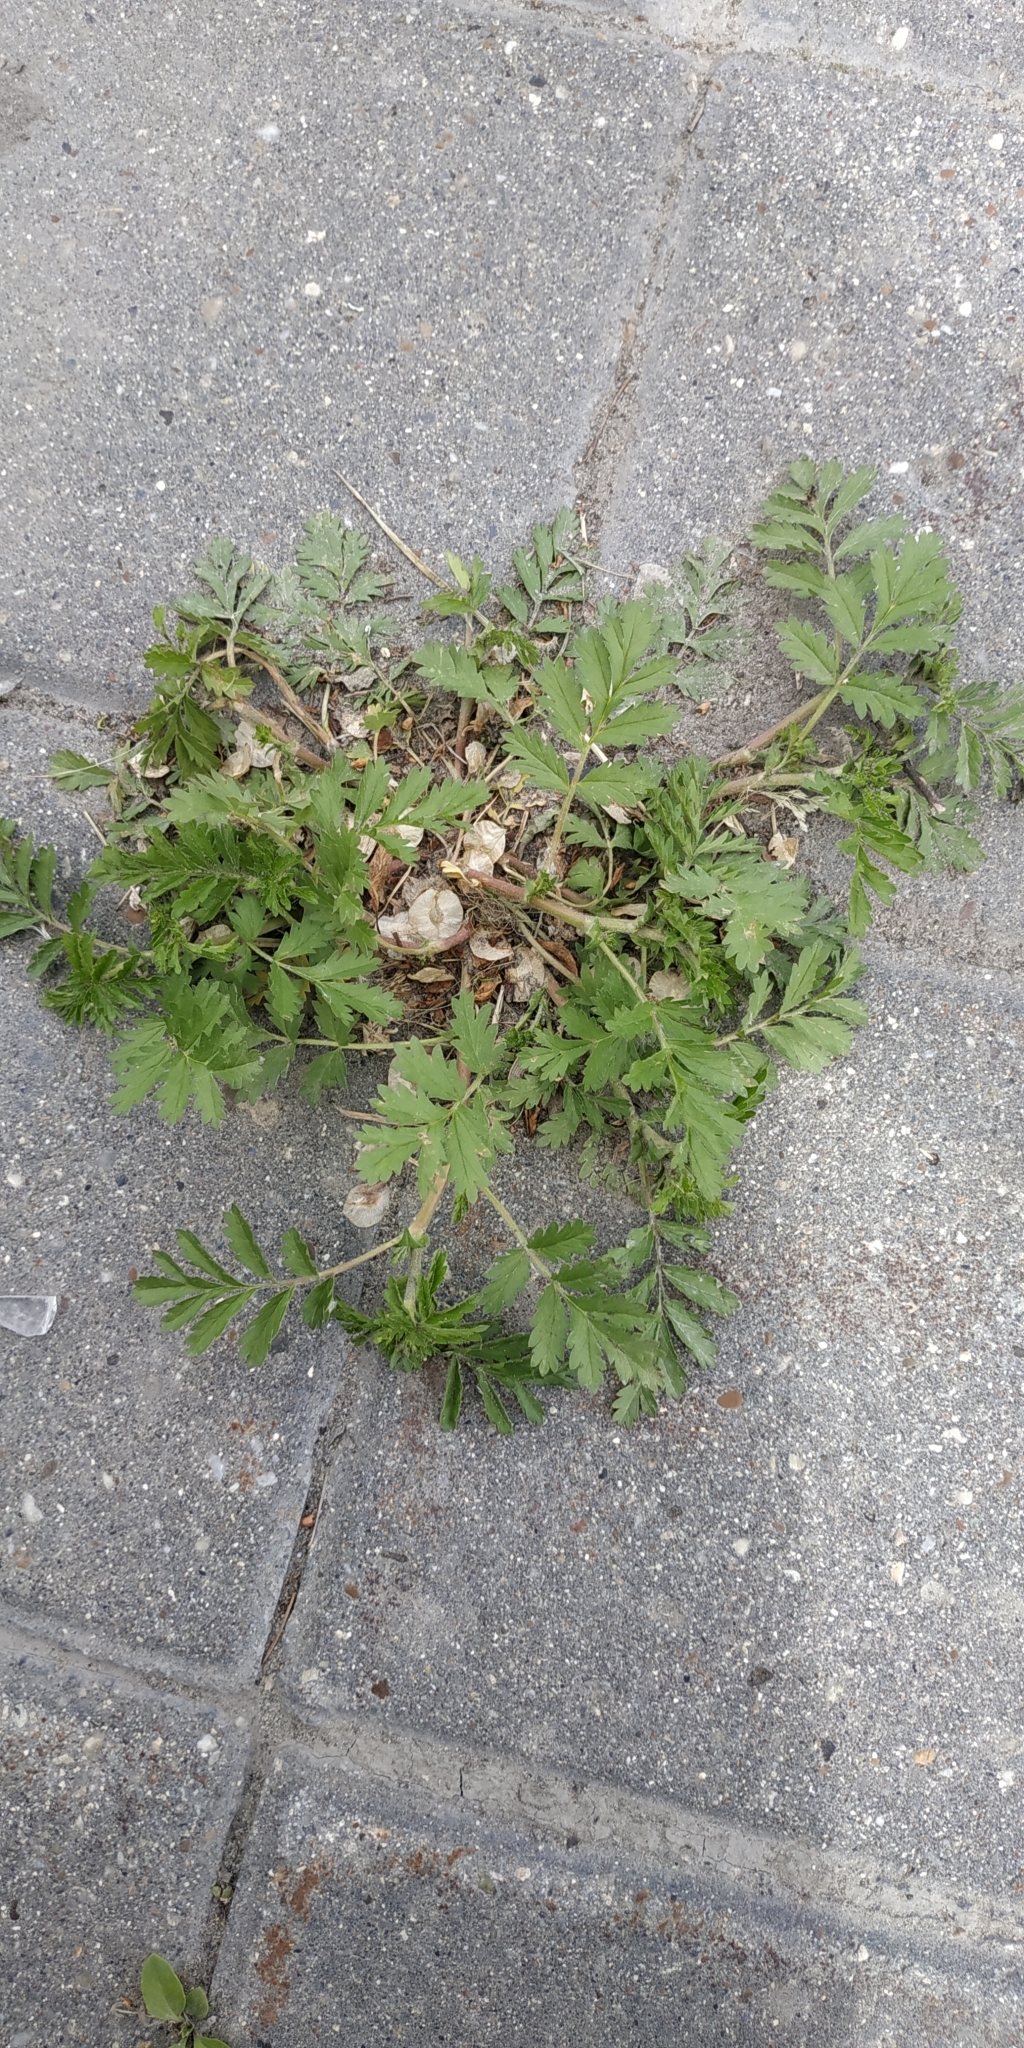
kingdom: Plantae
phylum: Tracheophyta
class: Magnoliopsida
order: Rosales
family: Rosaceae
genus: Potentilla
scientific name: Potentilla supina
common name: Prostrate cinquefoil
